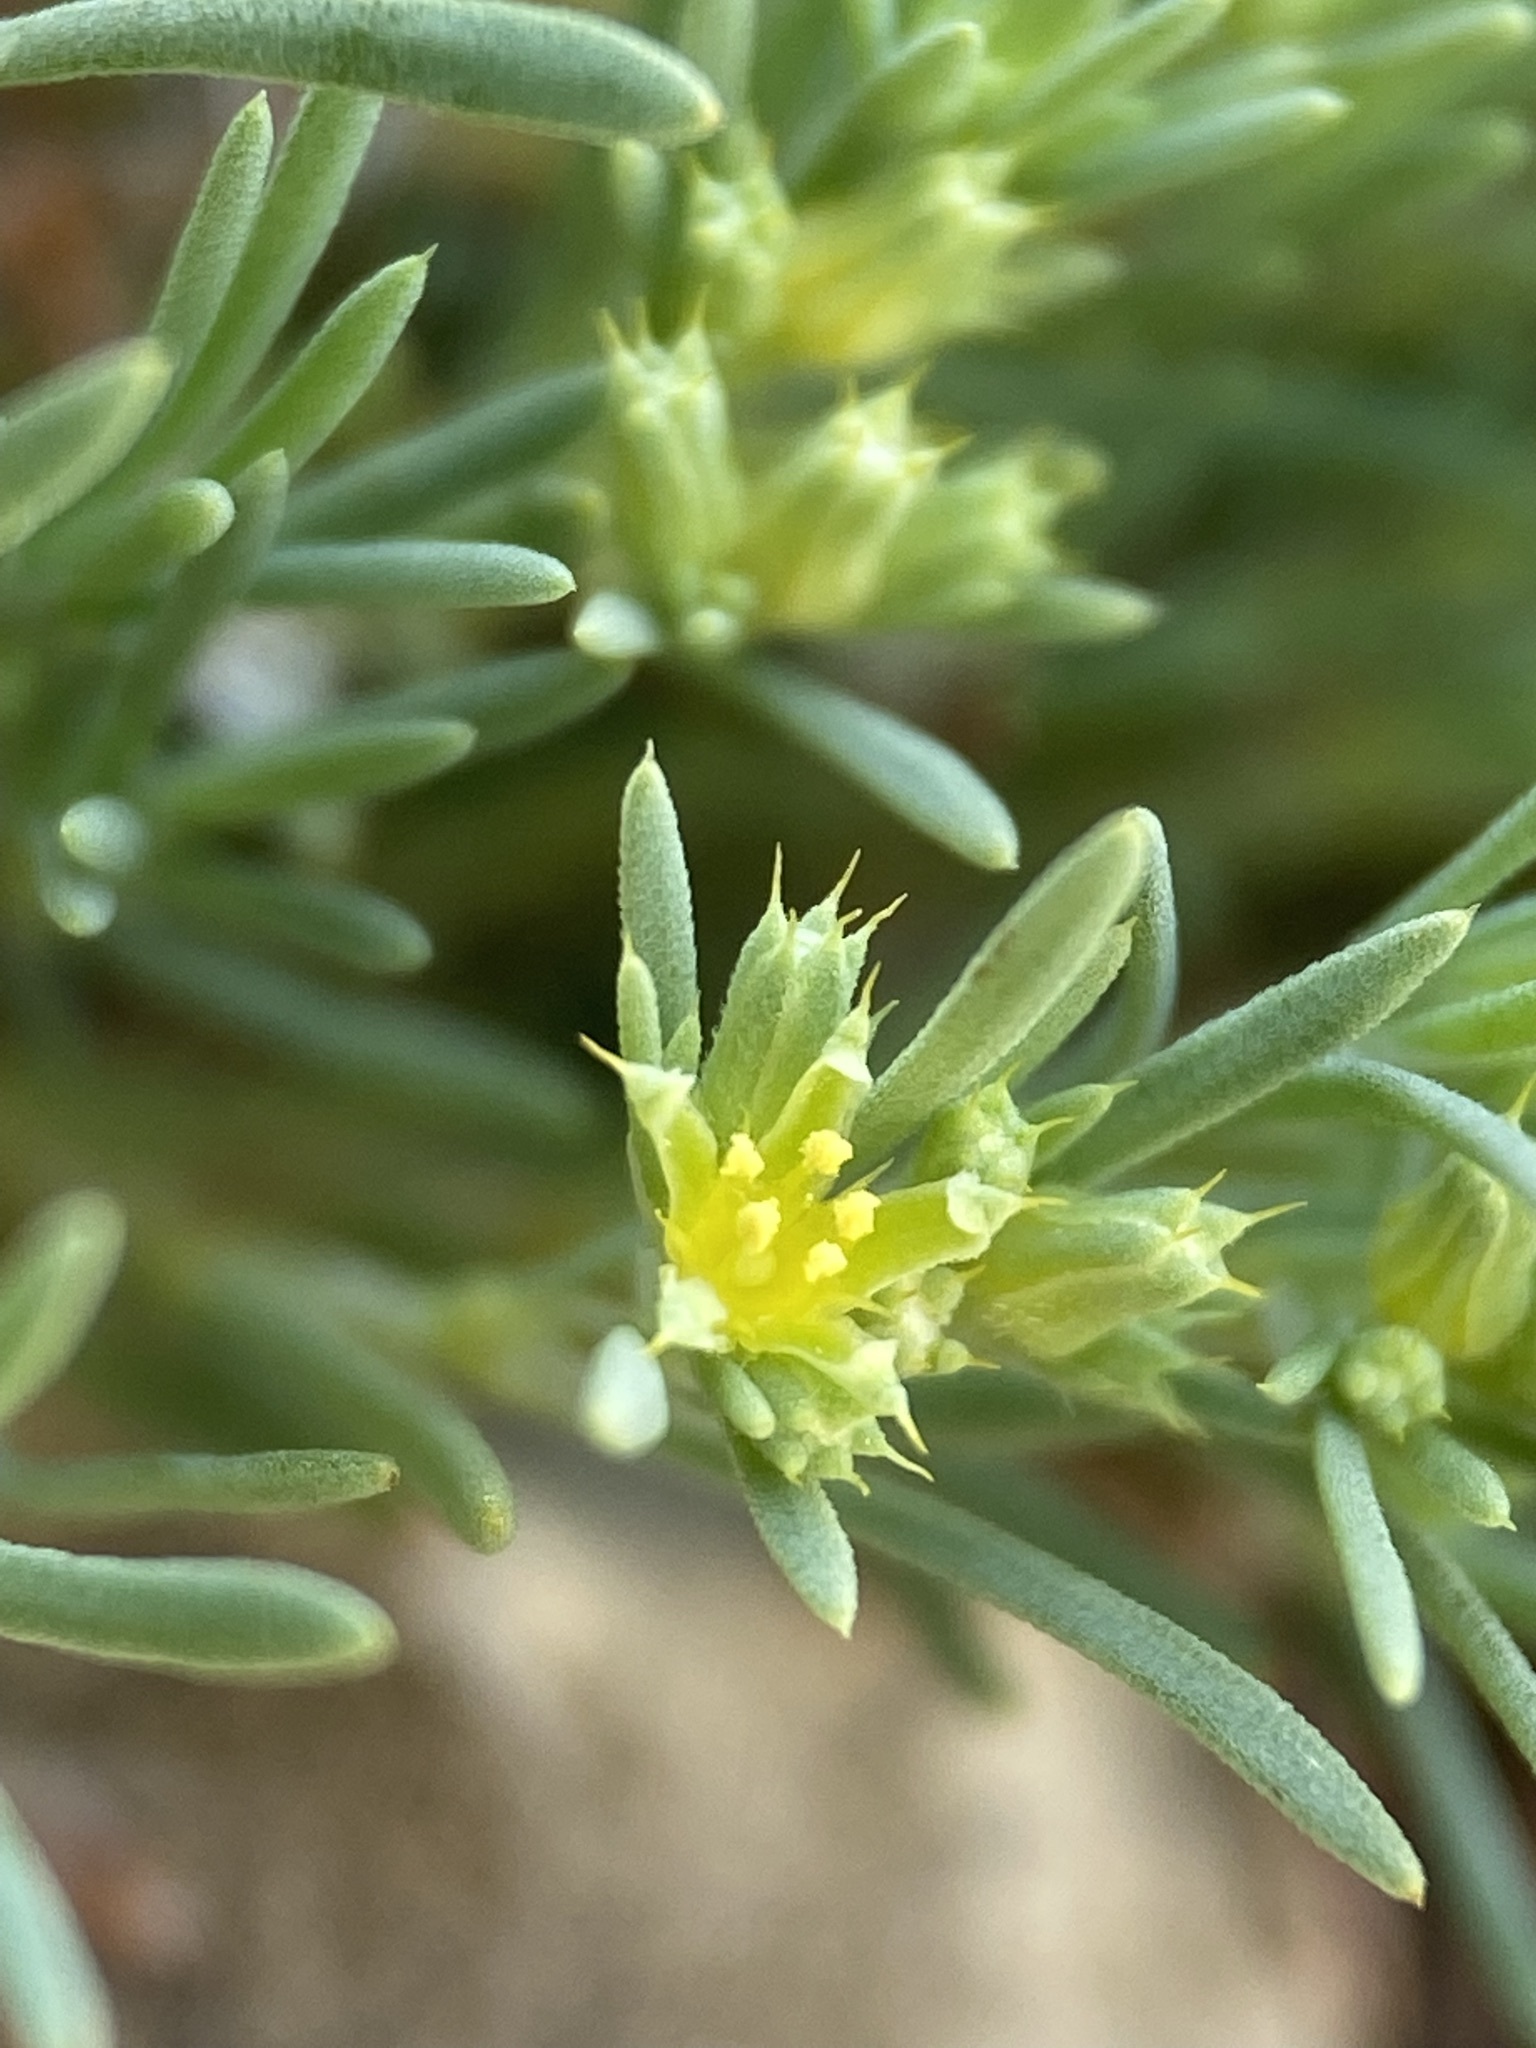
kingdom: Plantae
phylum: Tracheophyta
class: Magnoliopsida
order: Caryophyllales
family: Caryophyllaceae
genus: Paronychia
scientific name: Paronychia depressa
